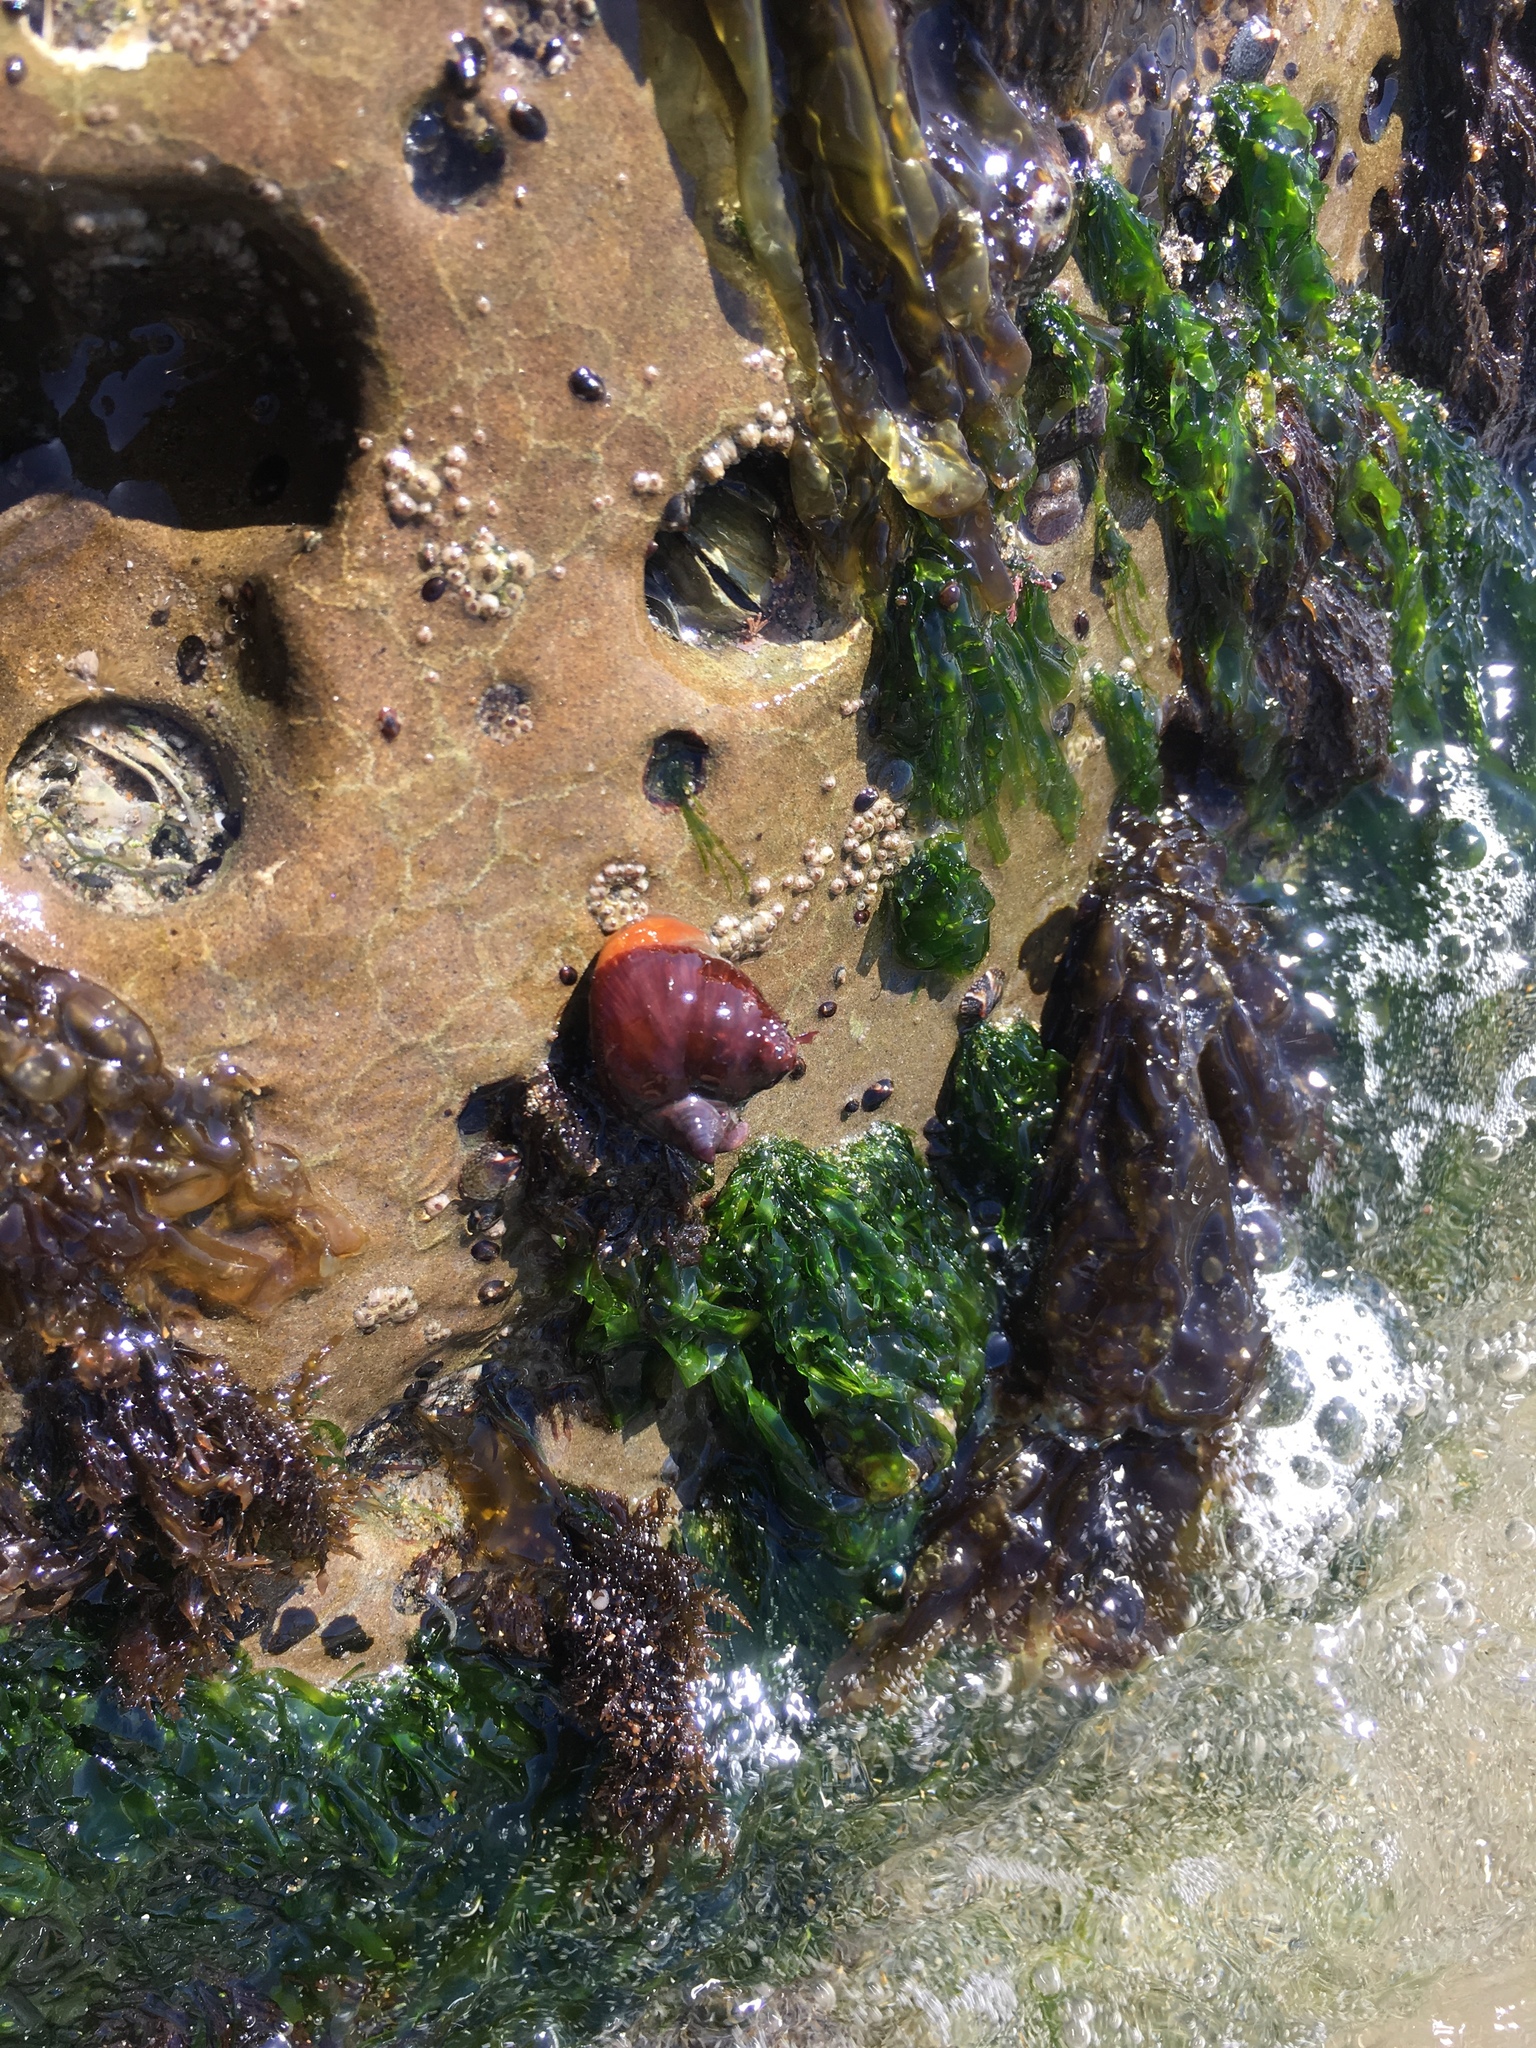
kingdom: Animalia
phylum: Mollusca
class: Gastropoda
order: Trochida
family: Tegulidae
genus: Tegula
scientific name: Tegula brunnea
